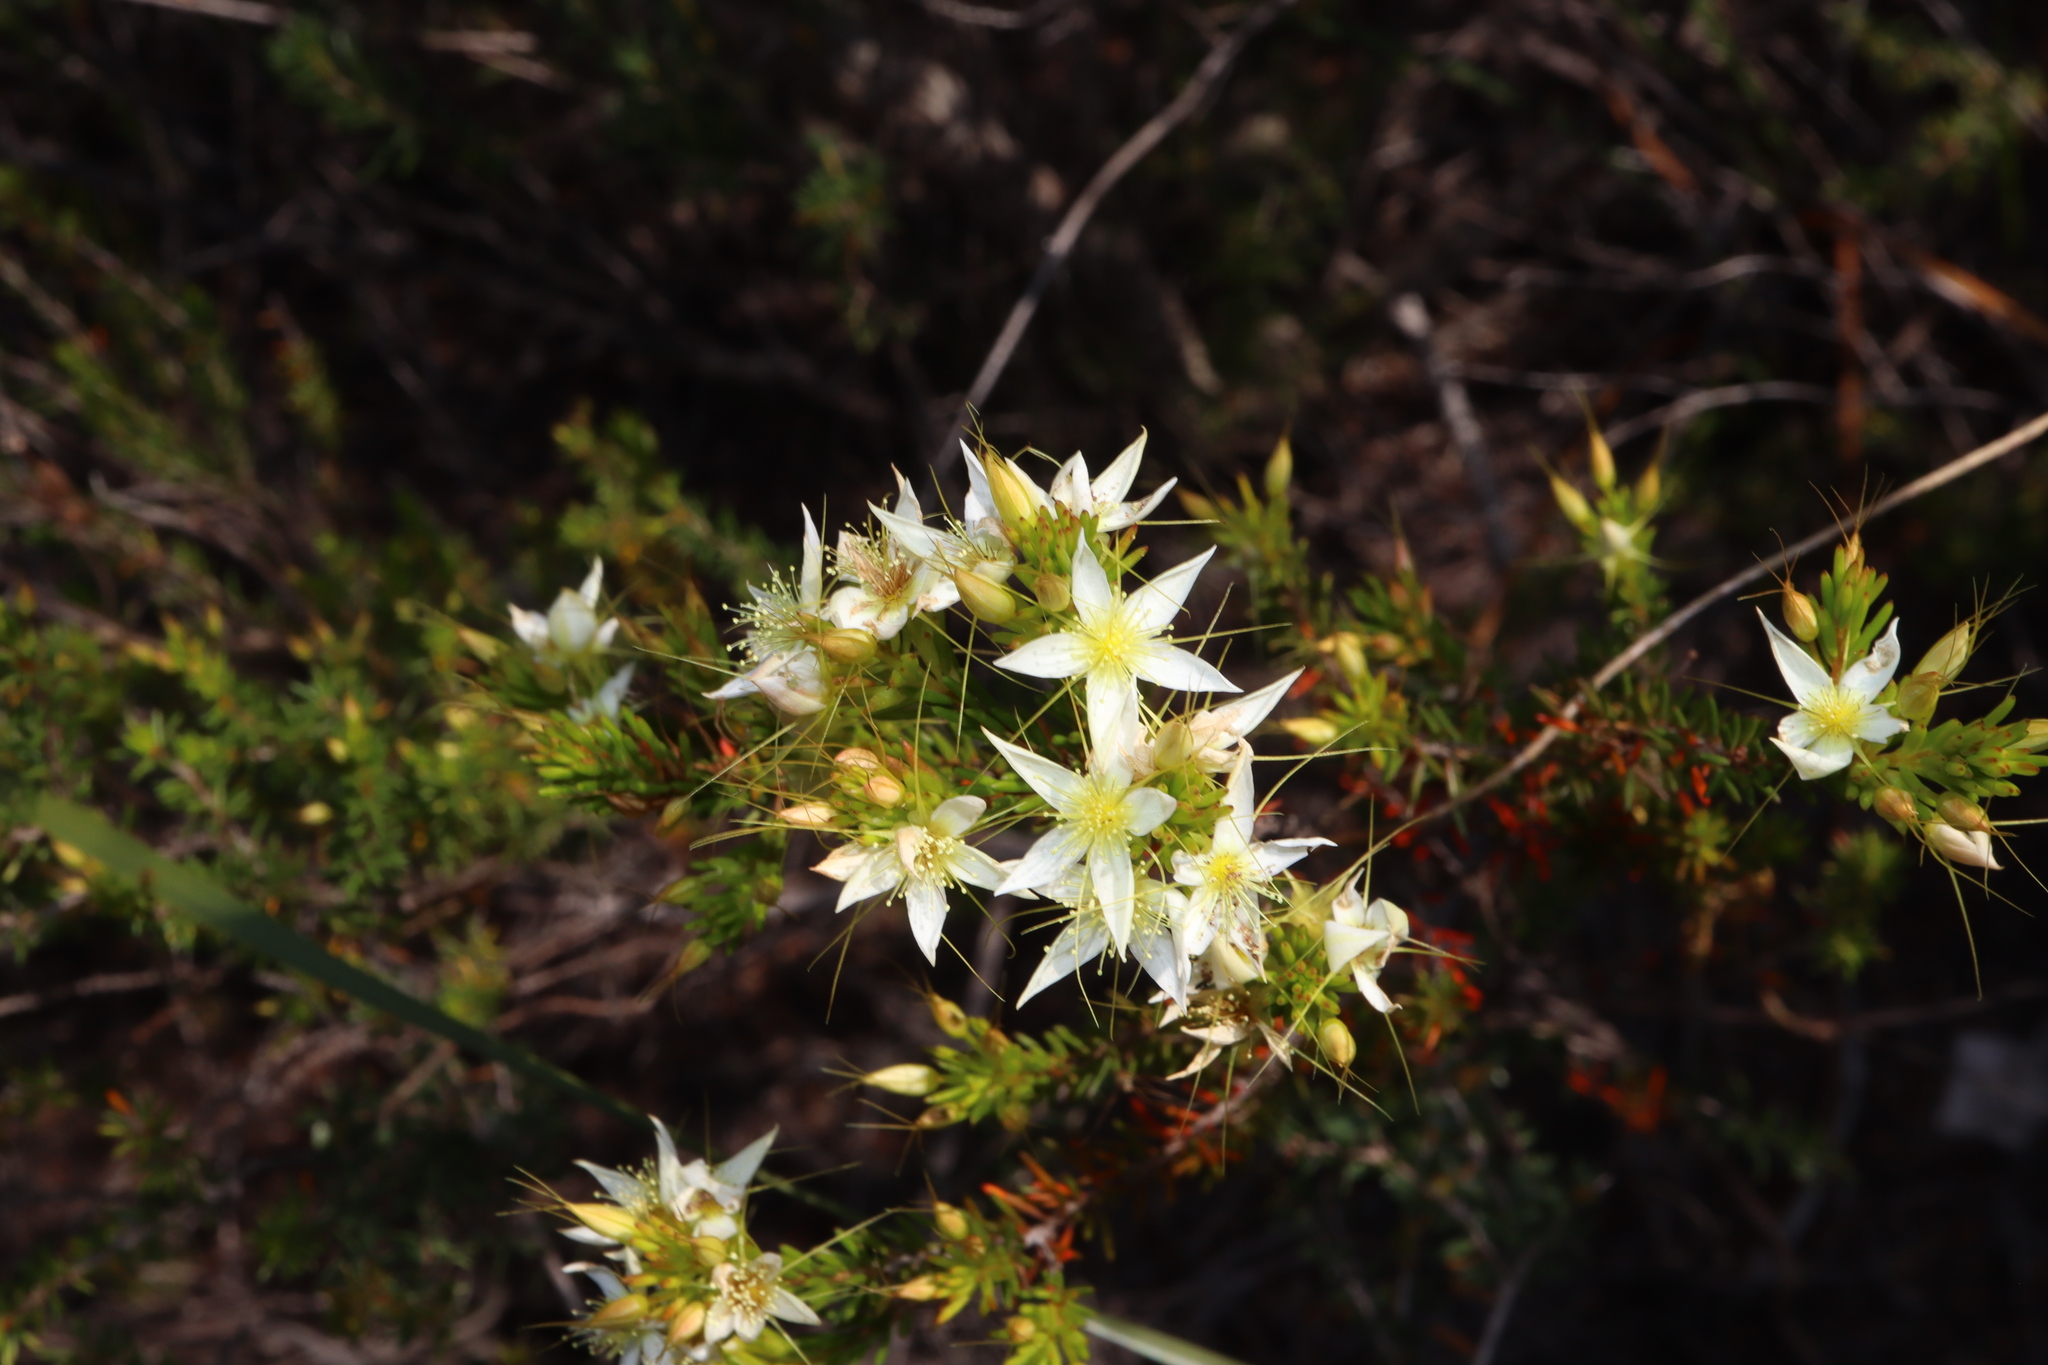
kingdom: Plantae
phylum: Tracheophyta
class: Magnoliopsida
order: Myrtales
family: Myrtaceae
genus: Calytrix
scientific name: Calytrix asperula
